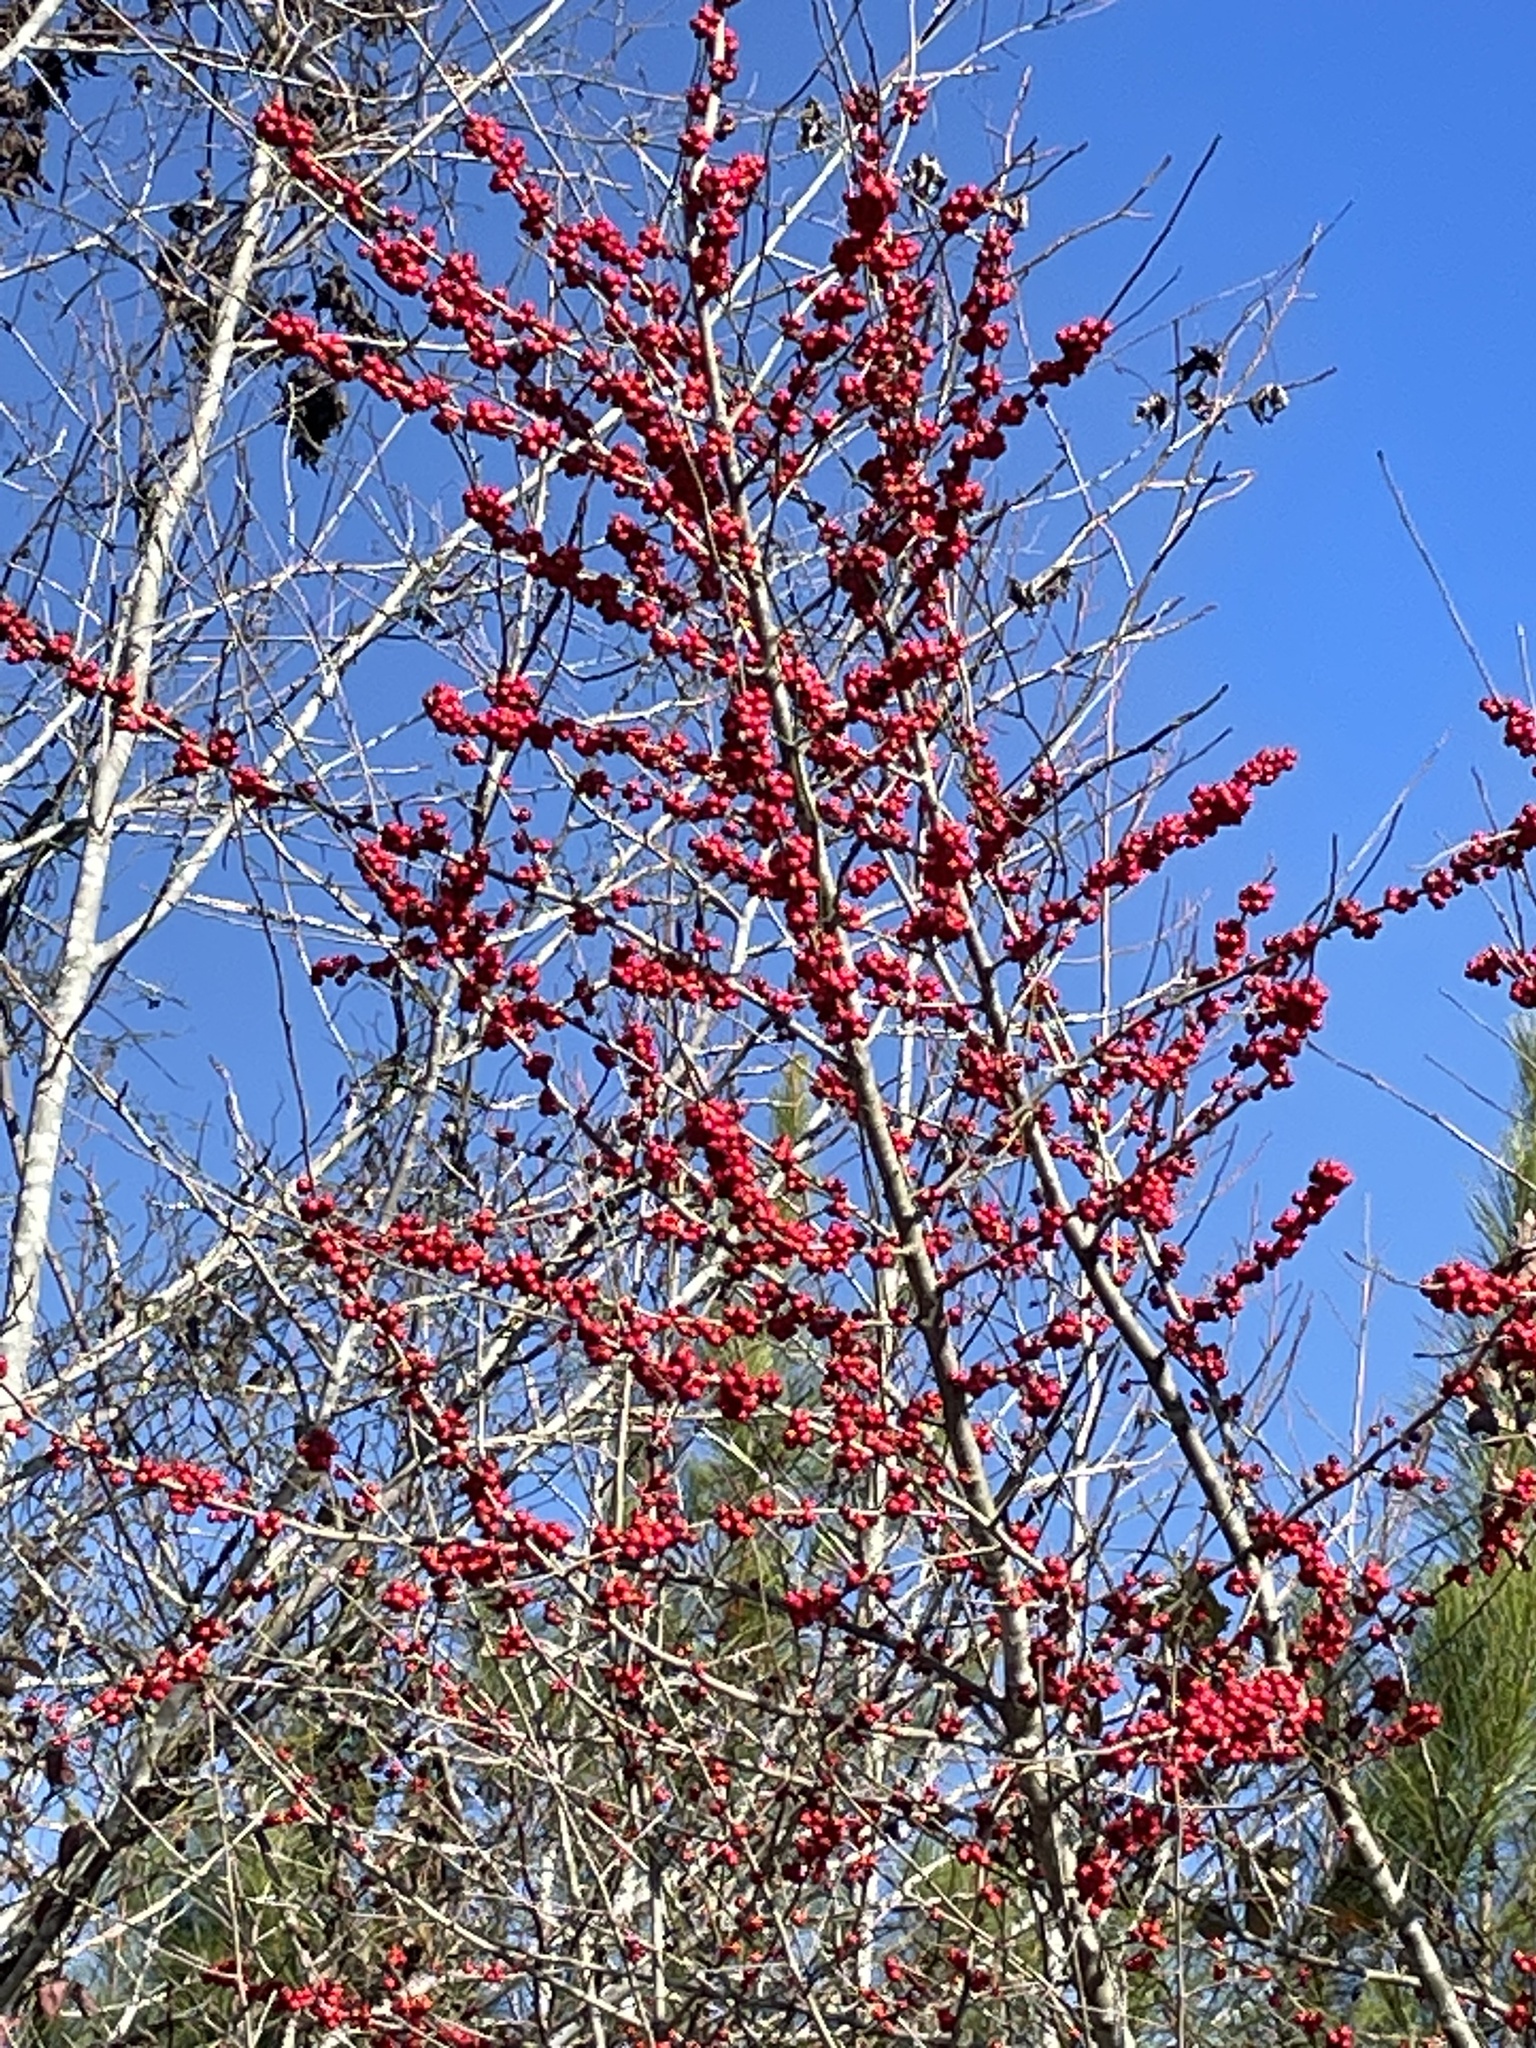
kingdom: Plantae
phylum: Tracheophyta
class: Magnoliopsida
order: Aquifoliales
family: Aquifoliaceae
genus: Ilex
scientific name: Ilex decidua
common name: Possum-haw
